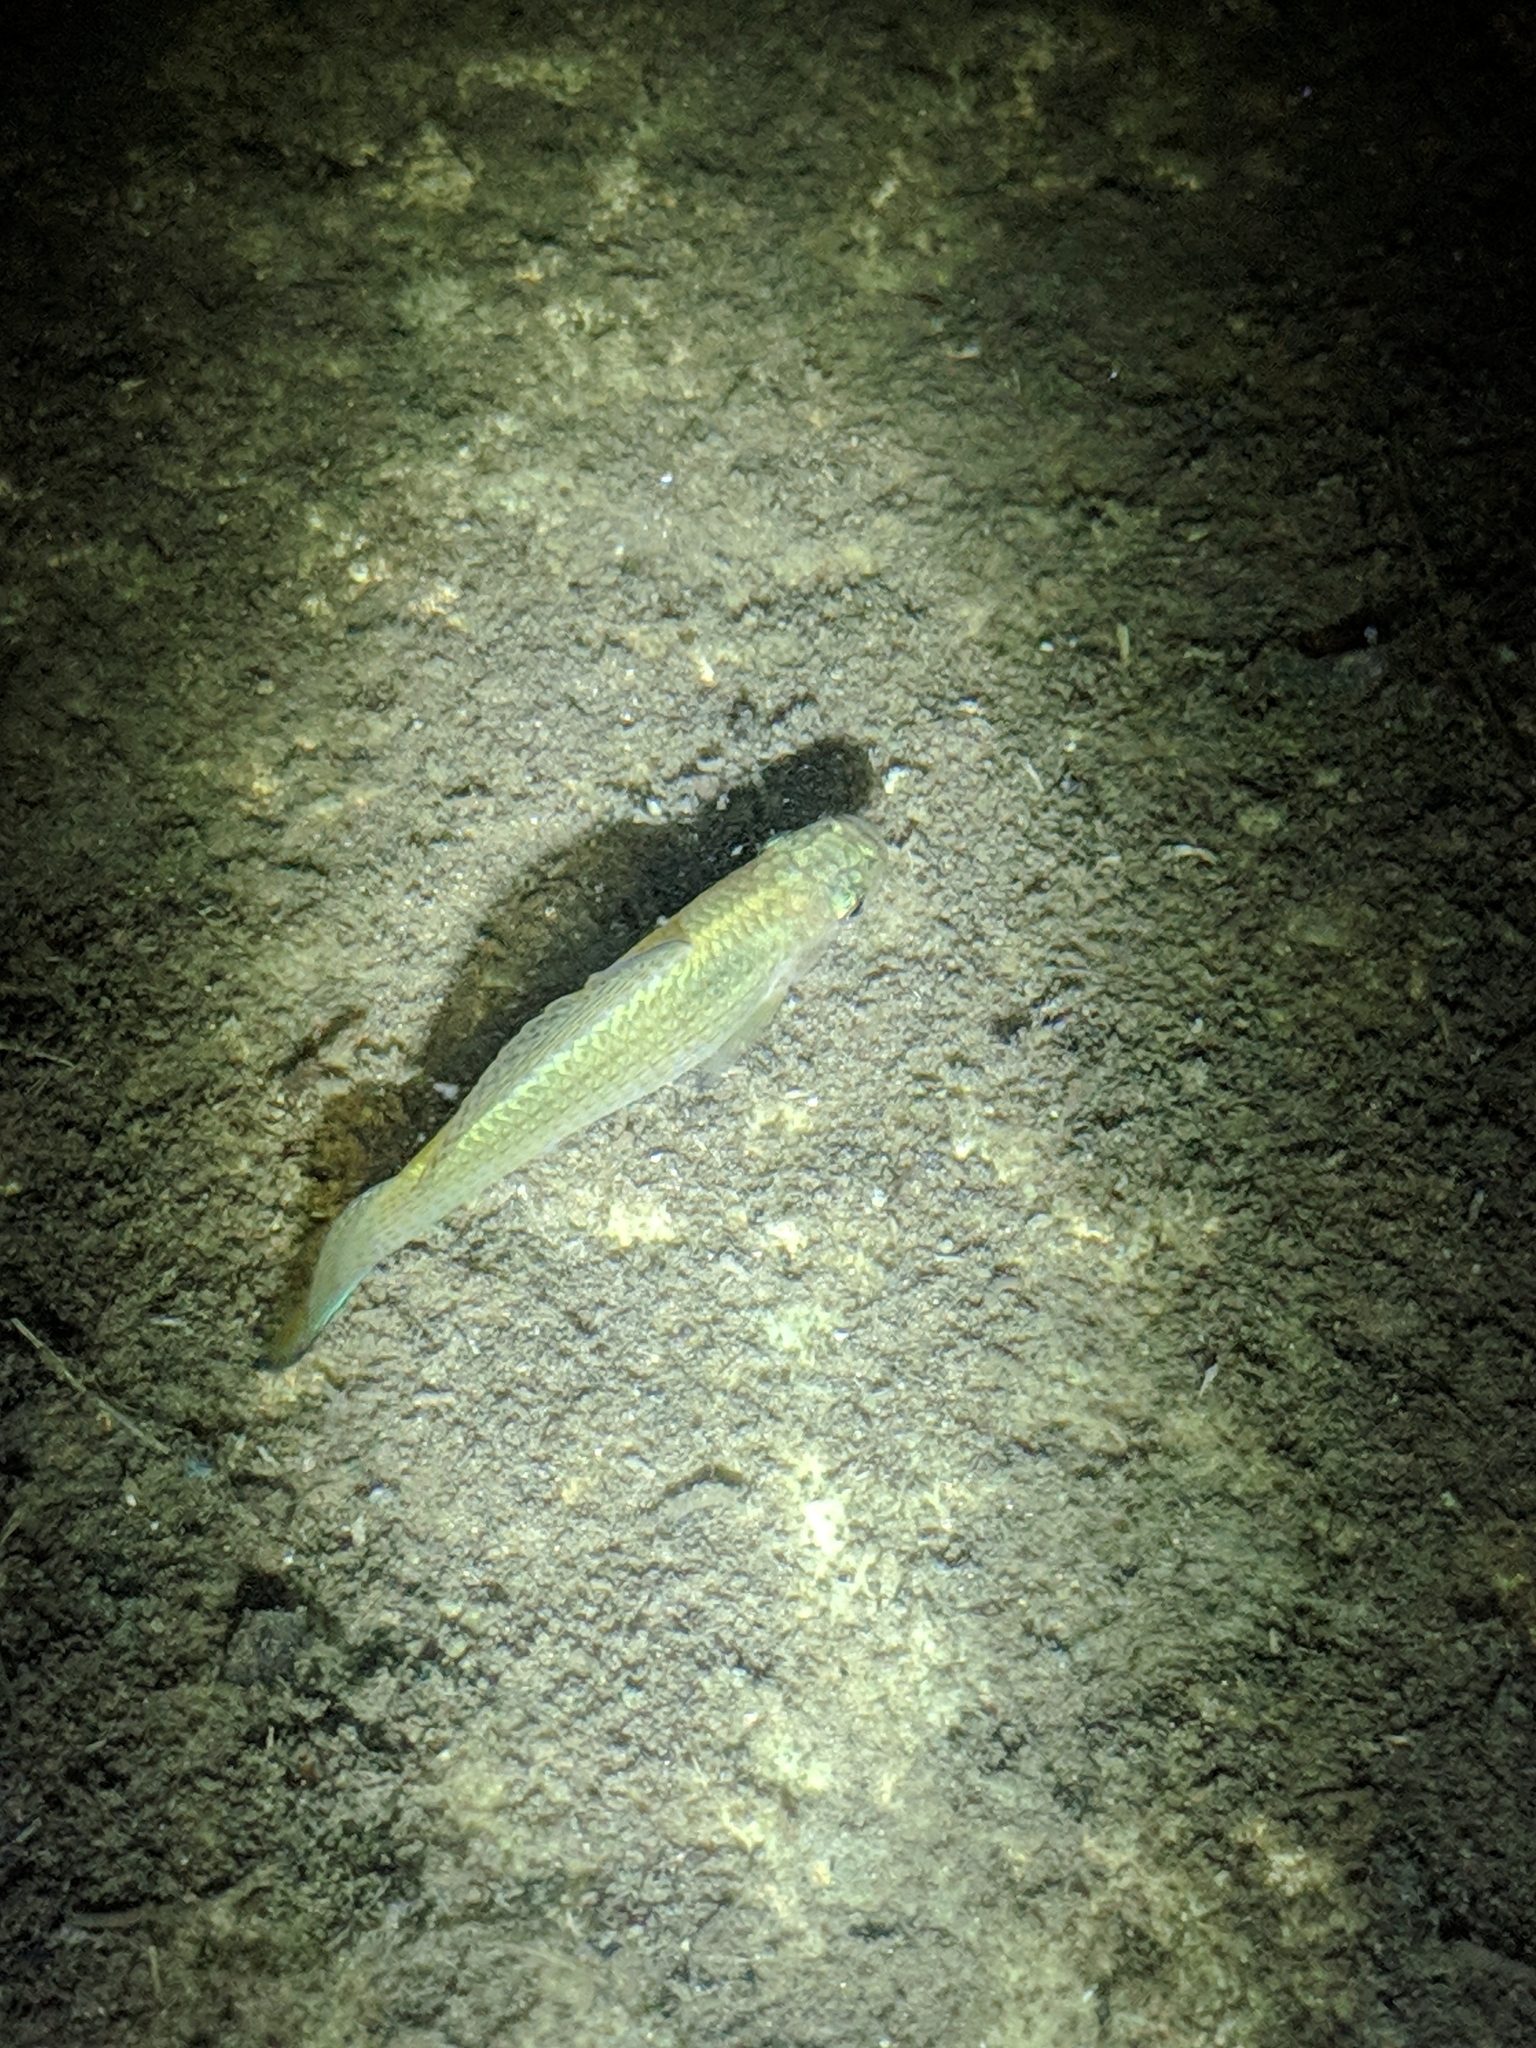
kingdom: Animalia
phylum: Chordata
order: Cyprinodontiformes
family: Poeciliidae
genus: Poecilia
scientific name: Poecilia latipinna
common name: Sailfin molly
